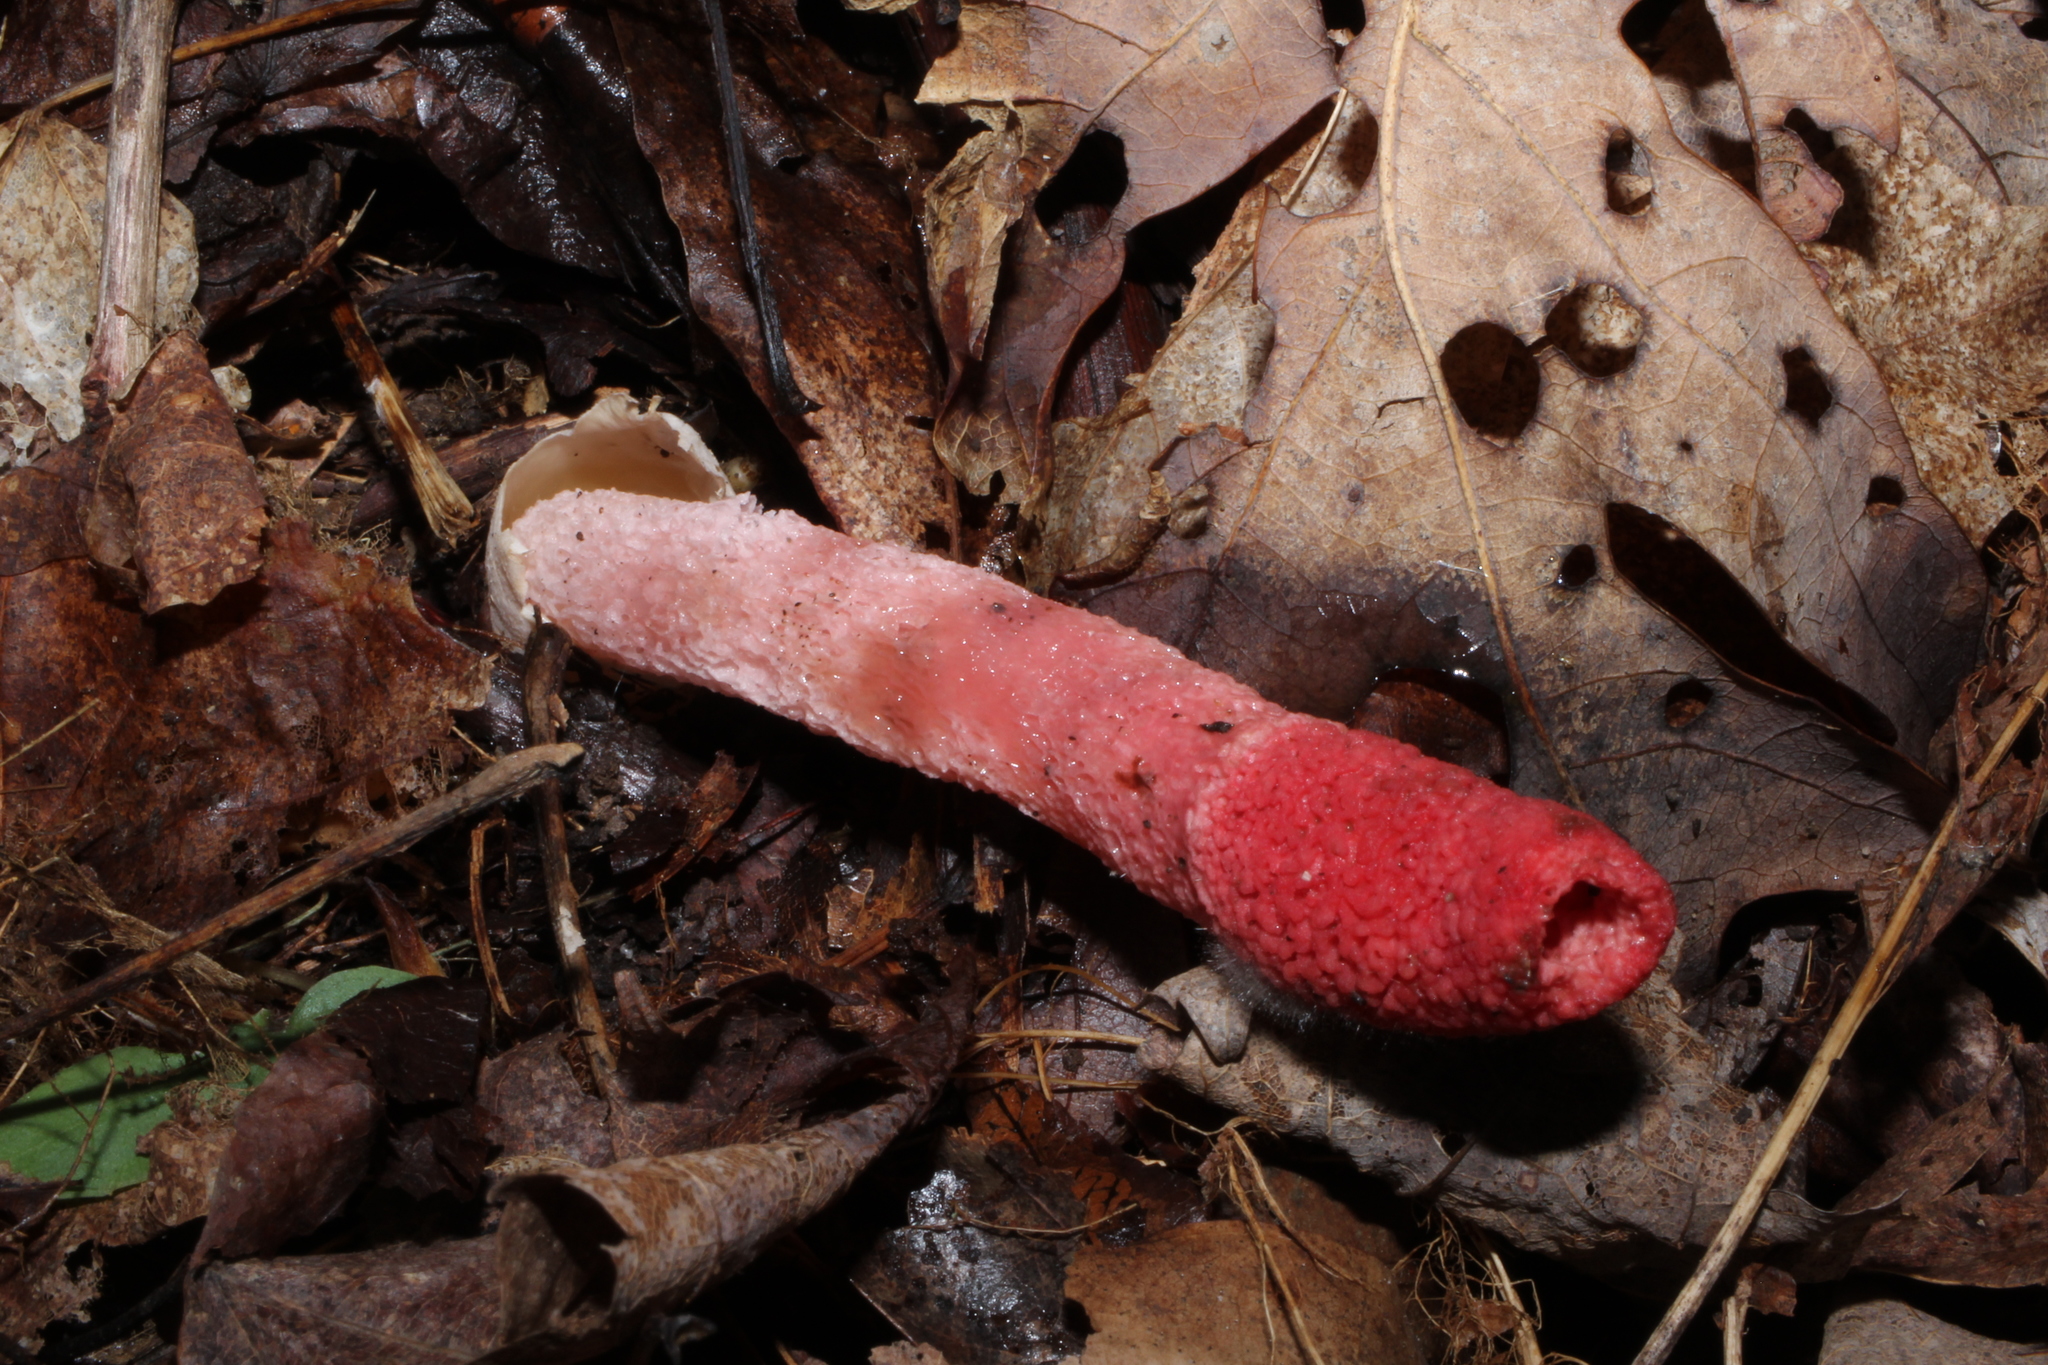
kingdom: Fungi
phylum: Basidiomycota
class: Agaricomycetes
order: Phallales
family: Phallaceae
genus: Mutinus
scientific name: Mutinus ravenelii
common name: Red stinkhorn
